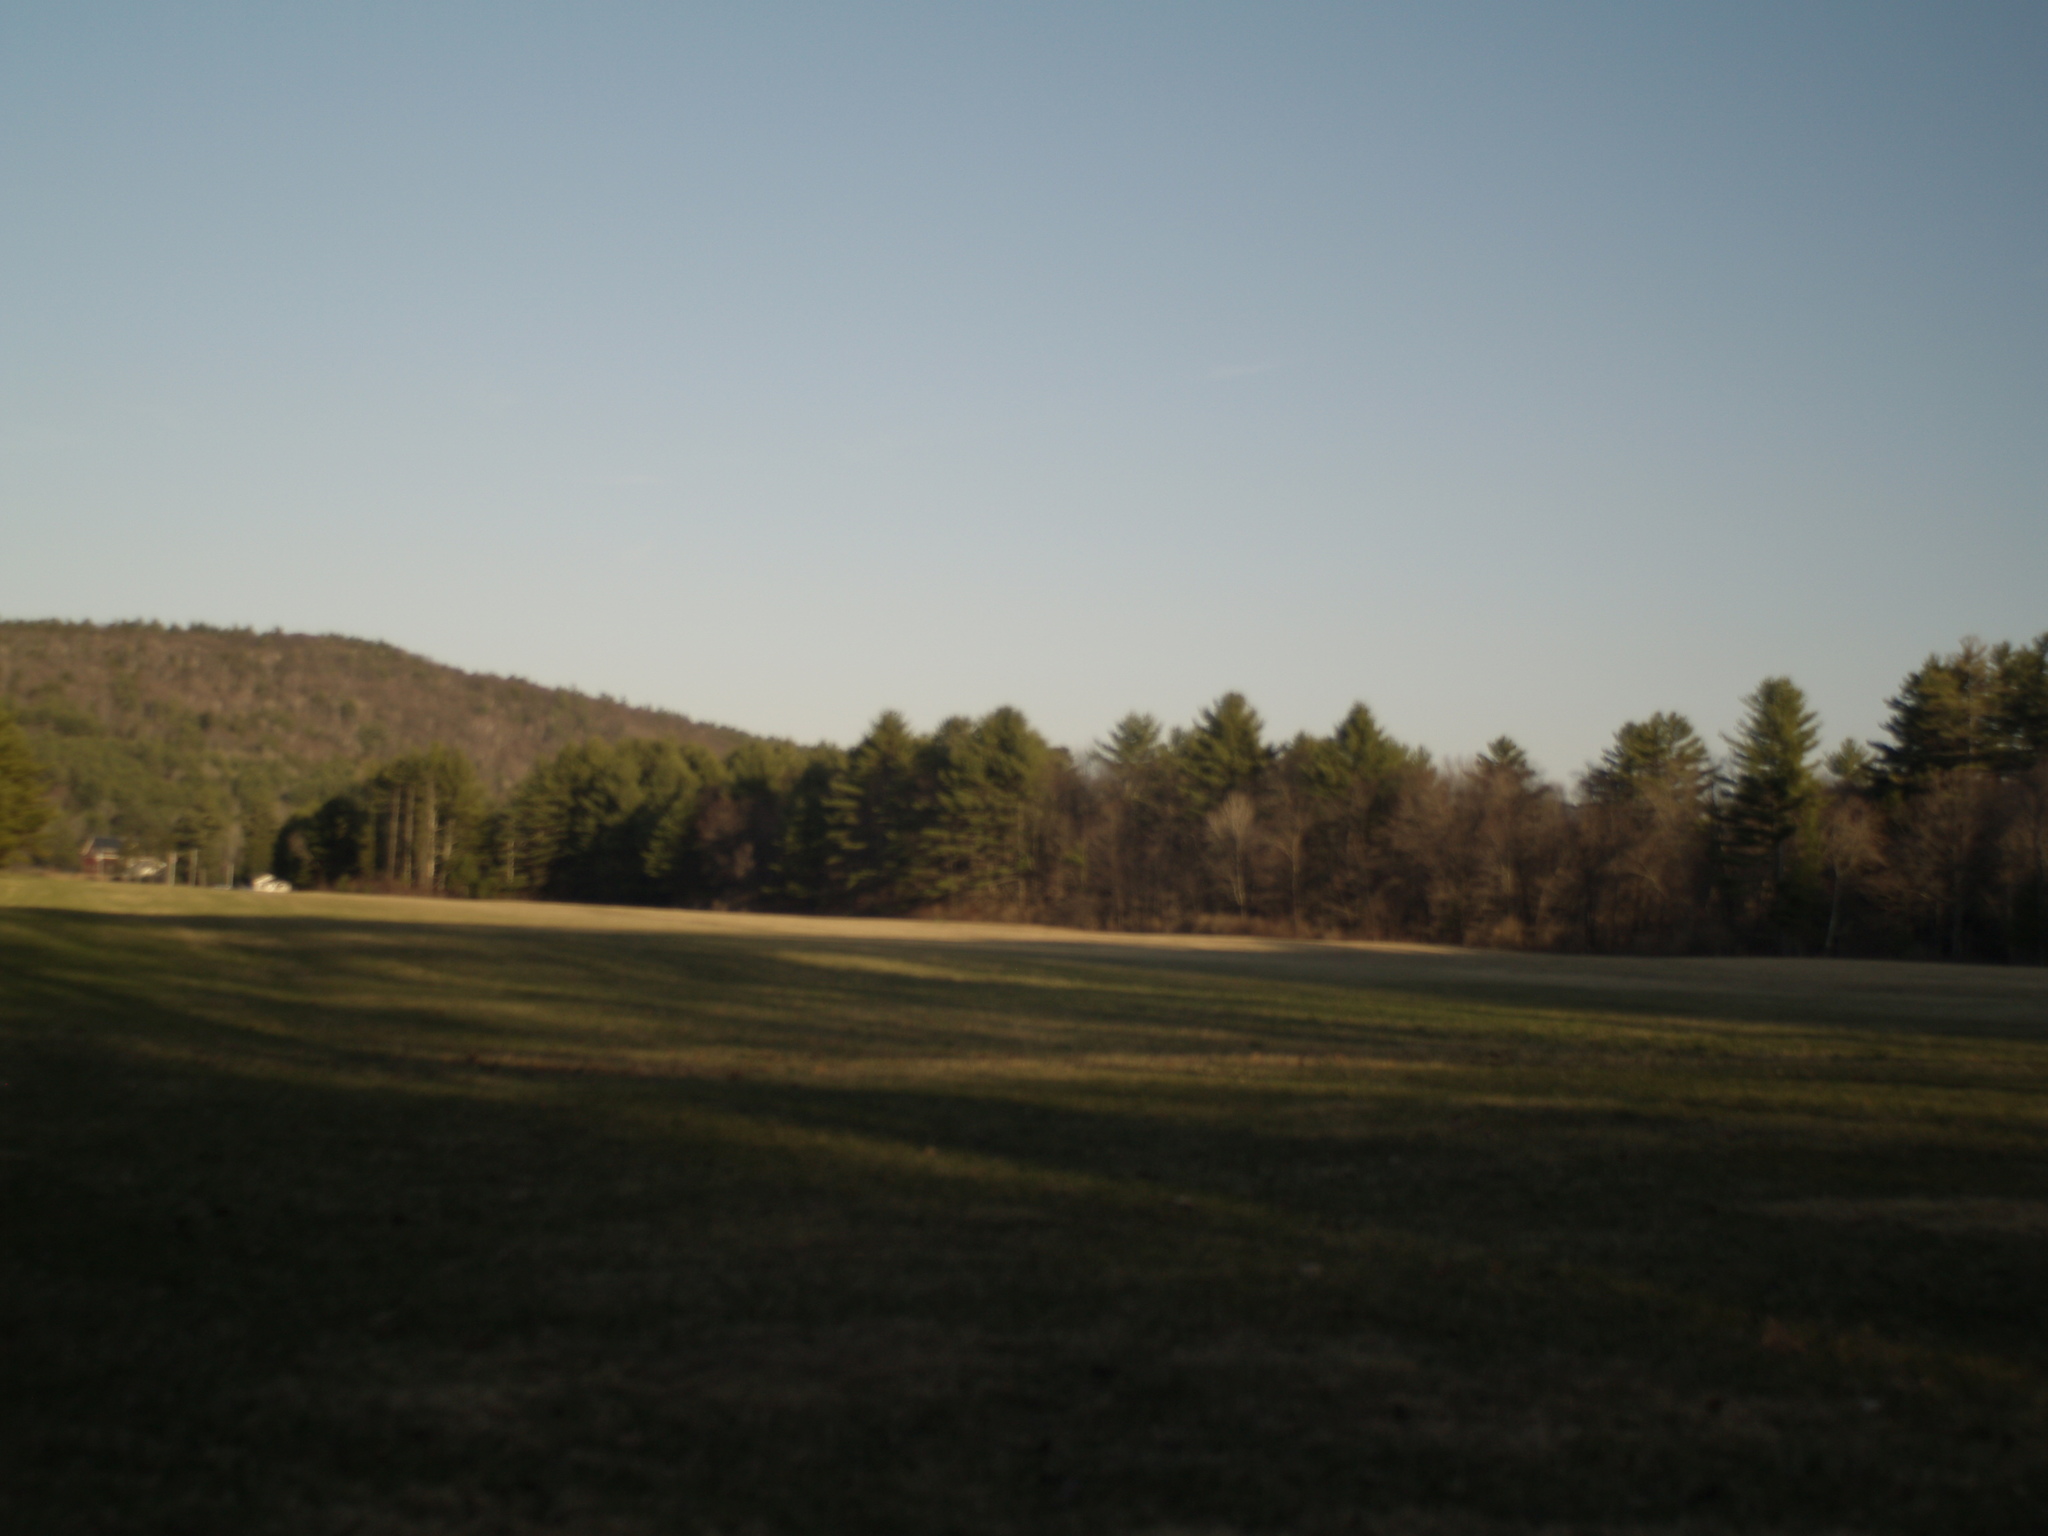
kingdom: Plantae
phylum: Tracheophyta
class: Pinopsida
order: Pinales
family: Pinaceae
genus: Pinus
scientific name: Pinus strobus
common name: Weymouth pine
